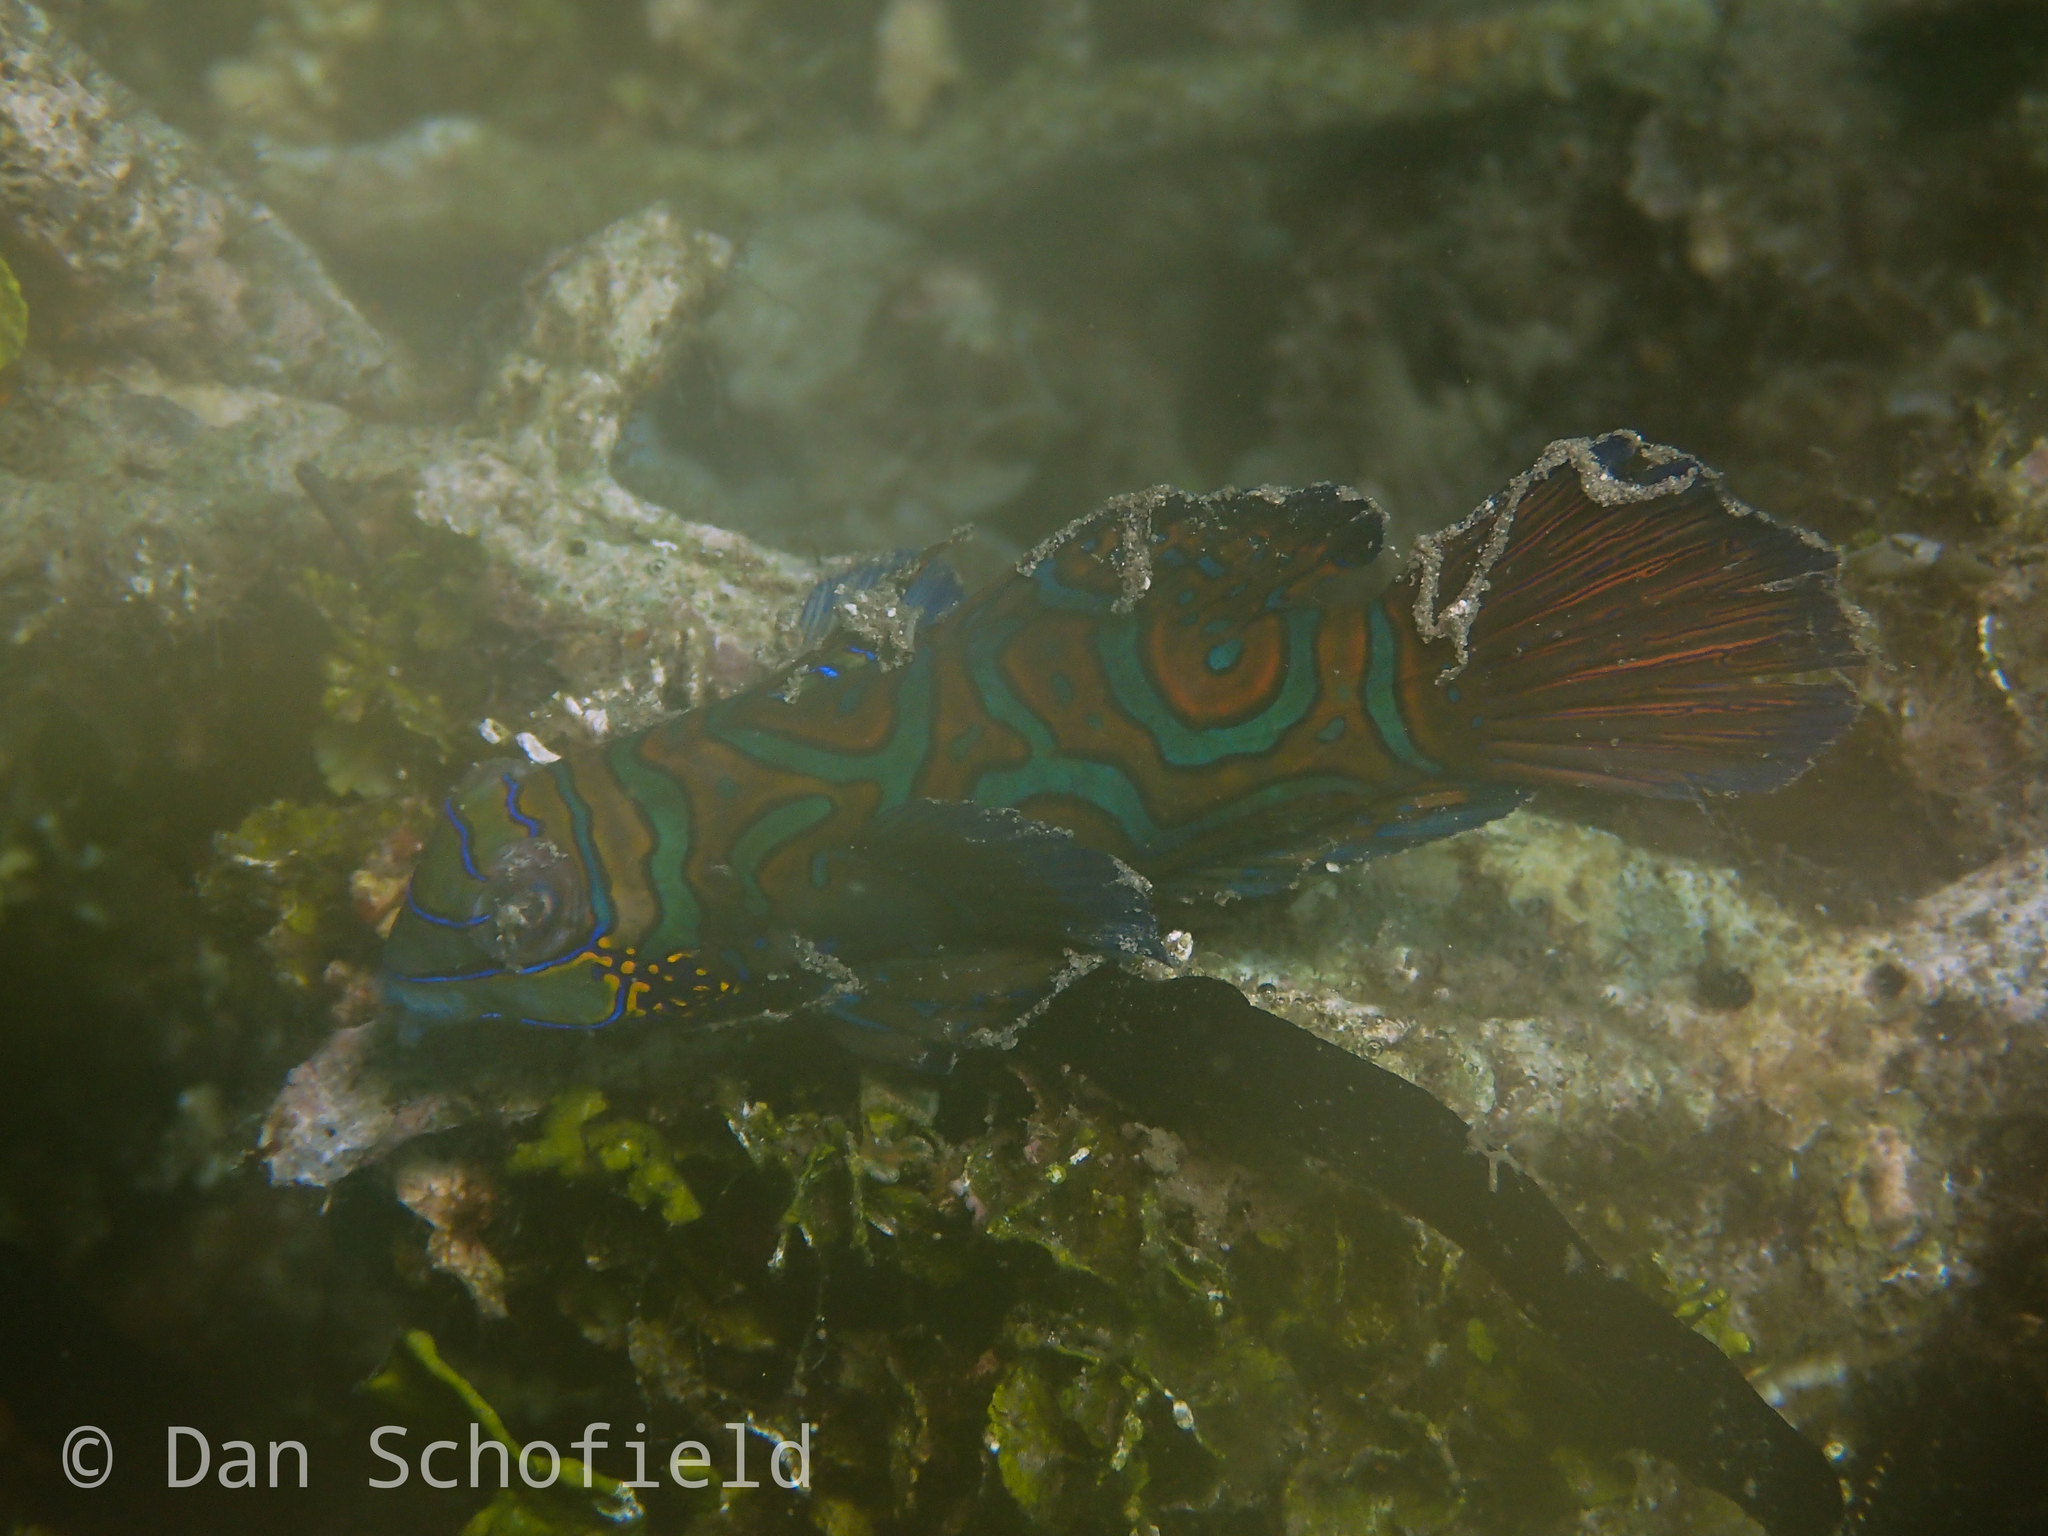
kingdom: Animalia
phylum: Chordata
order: Perciformes
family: Callionymidae
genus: Synchiropus
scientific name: Synchiropus splendidus
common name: Mandarinfish
